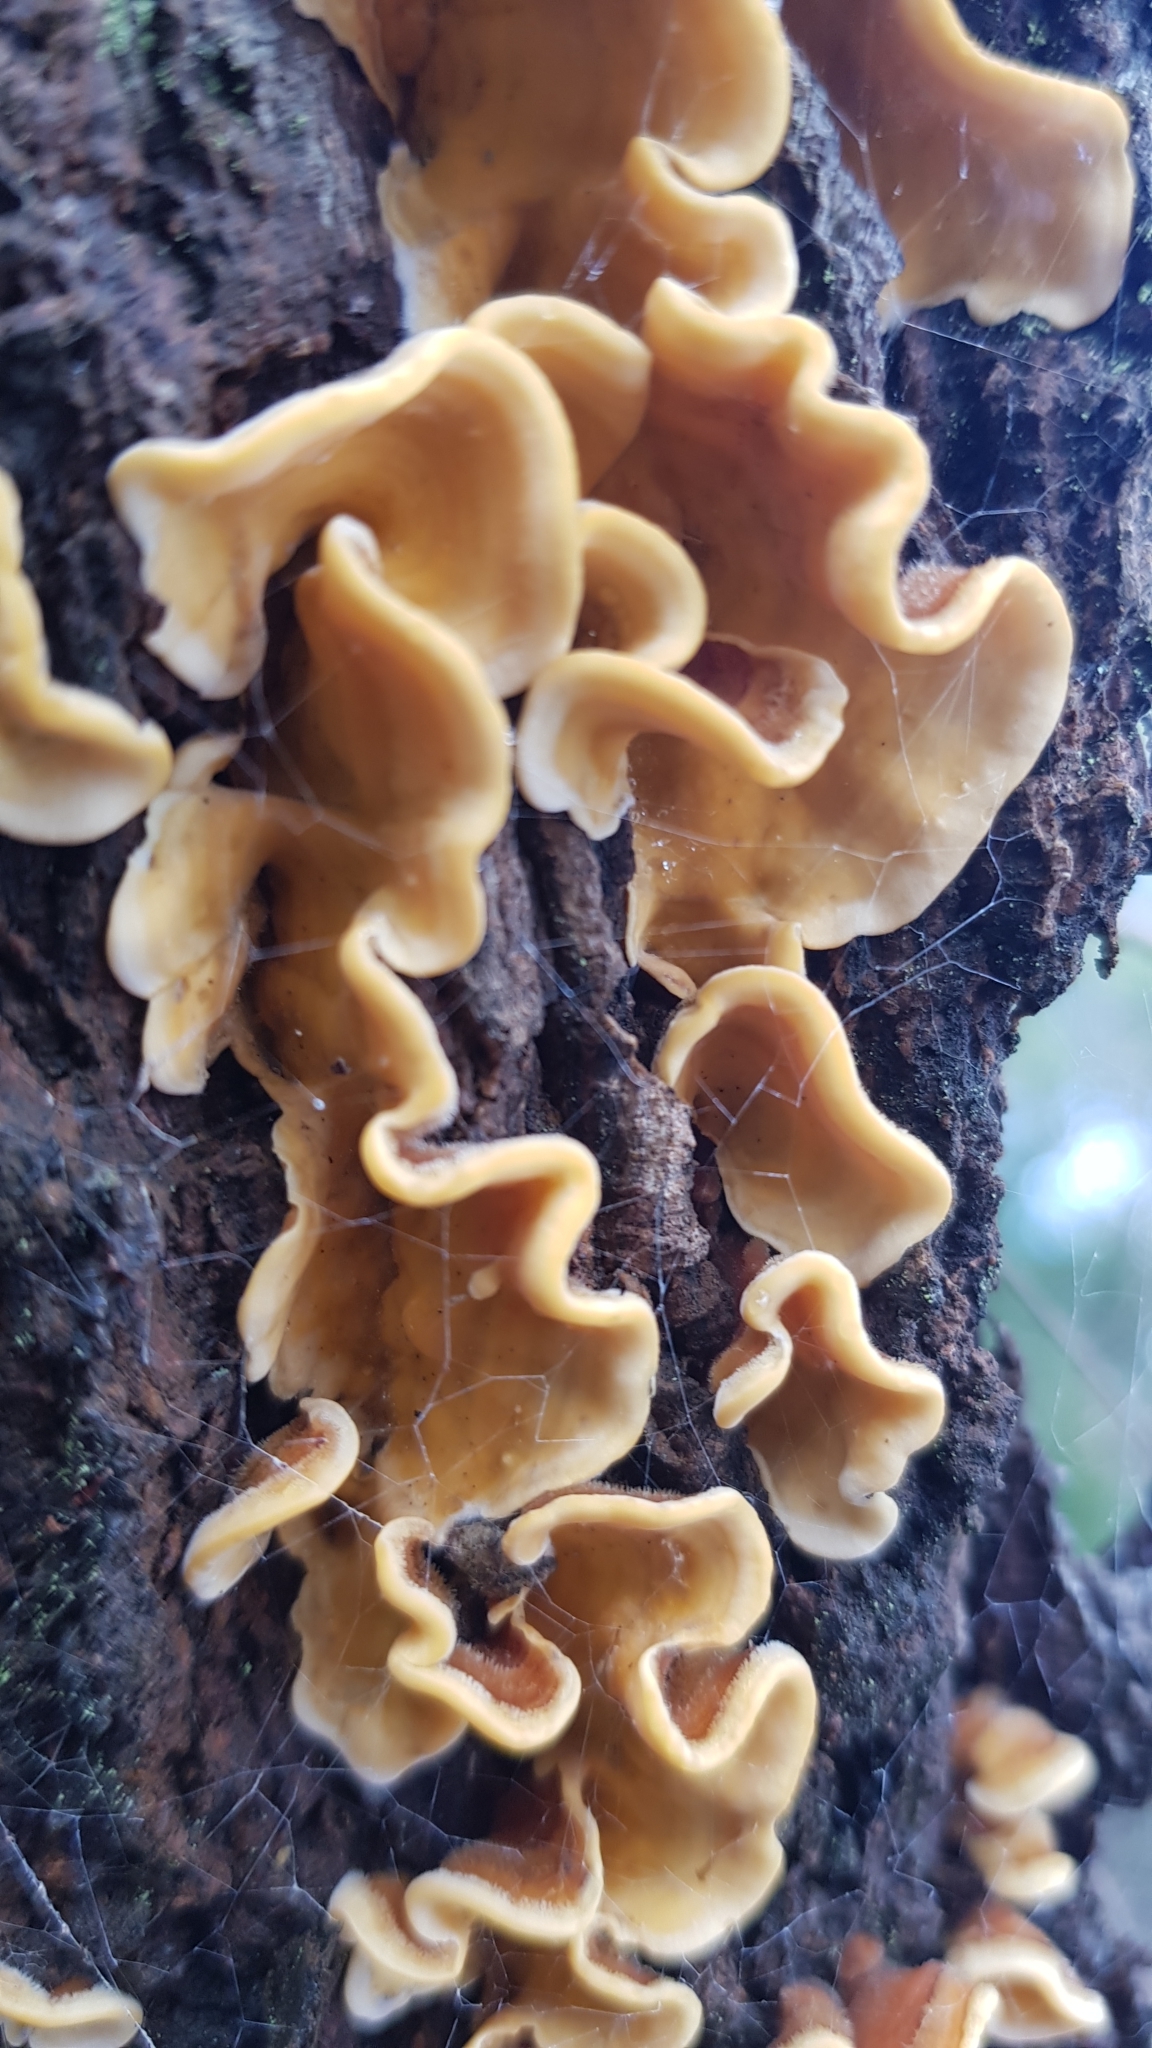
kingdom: Fungi
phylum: Basidiomycota
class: Agaricomycetes
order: Russulales
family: Stereaceae
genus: Stereum
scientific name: Stereum hirsutum
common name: Hairy curtain crust
